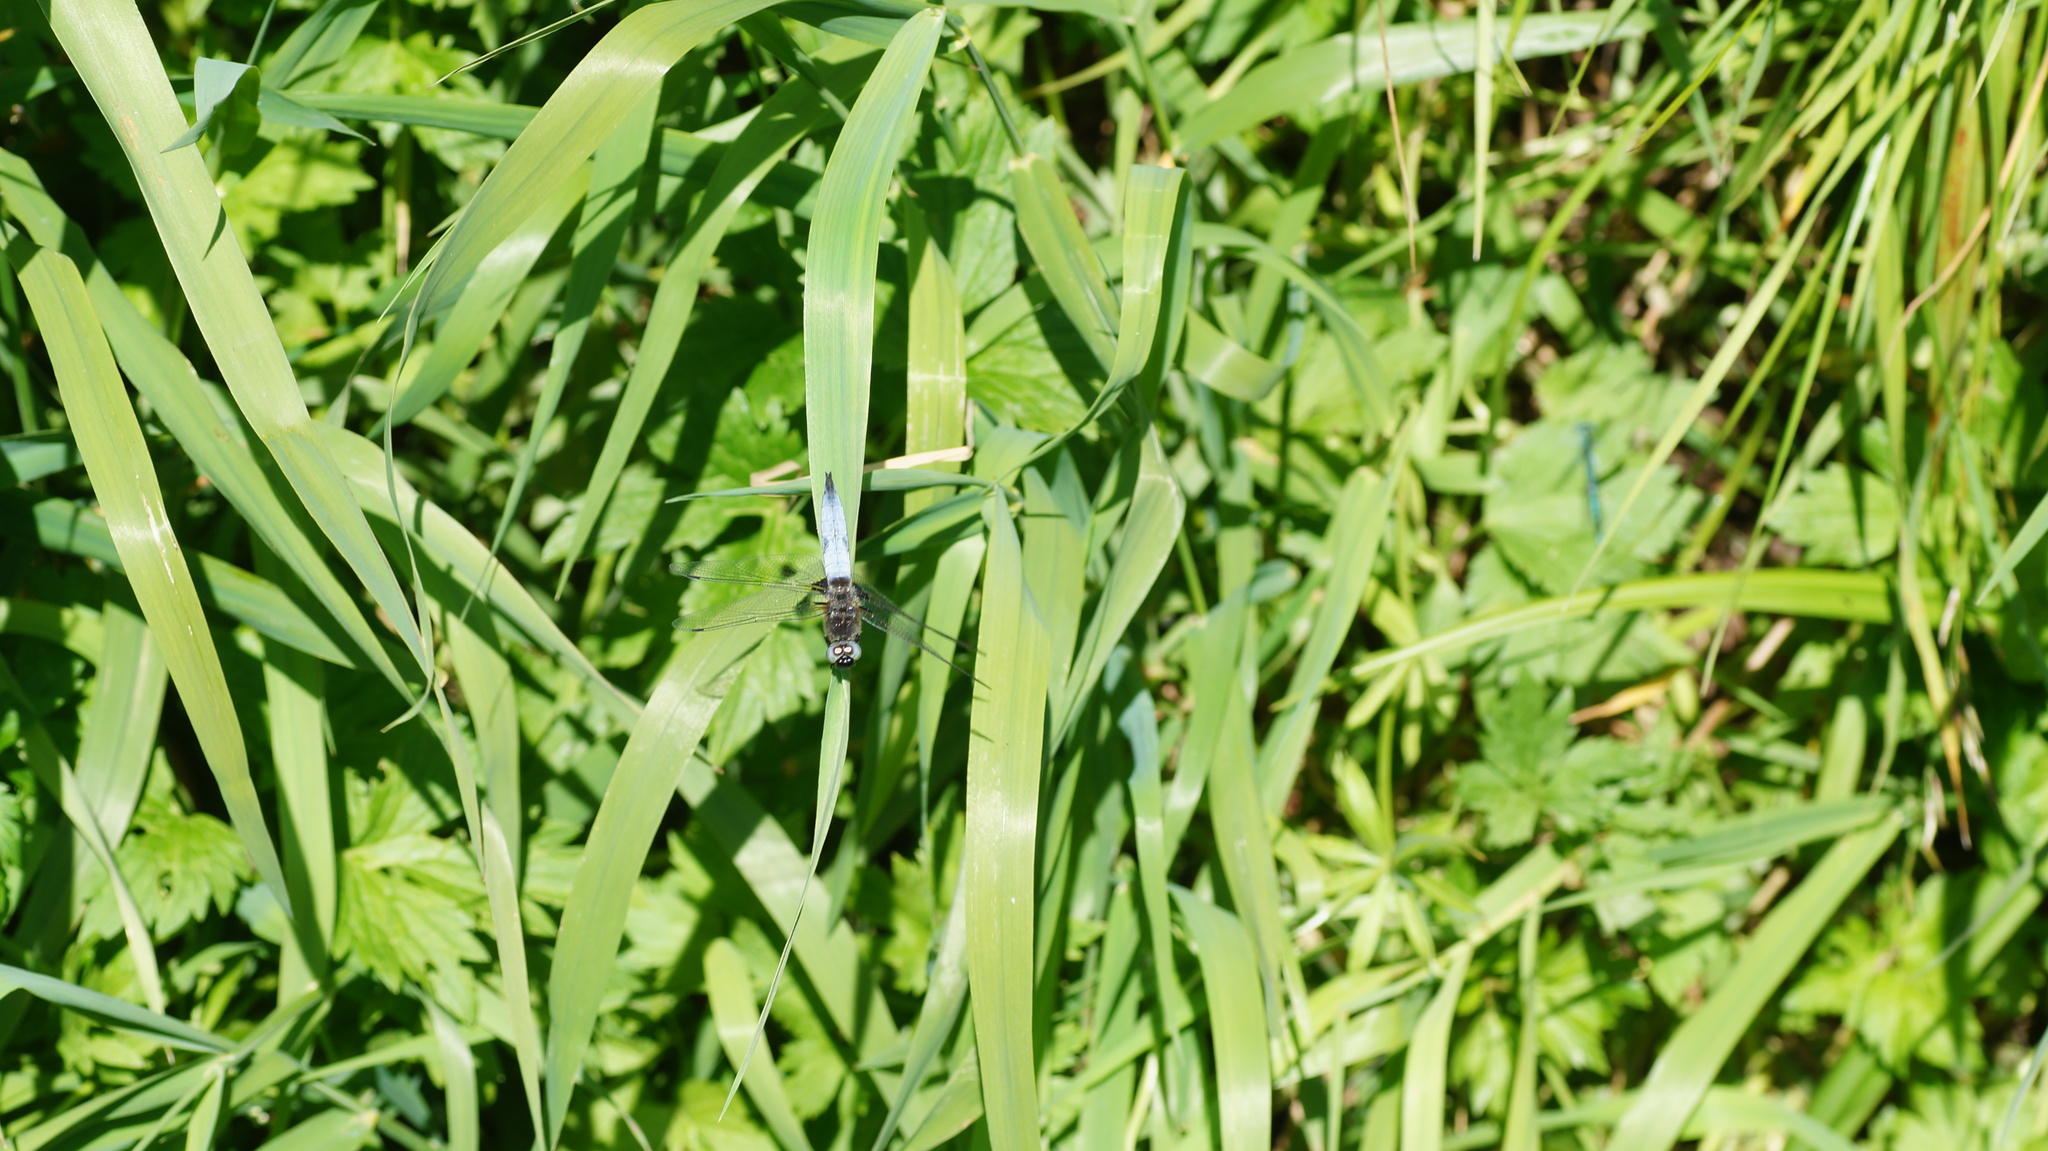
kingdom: Animalia
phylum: Arthropoda
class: Insecta
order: Odonata
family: Libellulidae
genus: Libellula
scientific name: Libellula fulva
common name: Blue chaser
